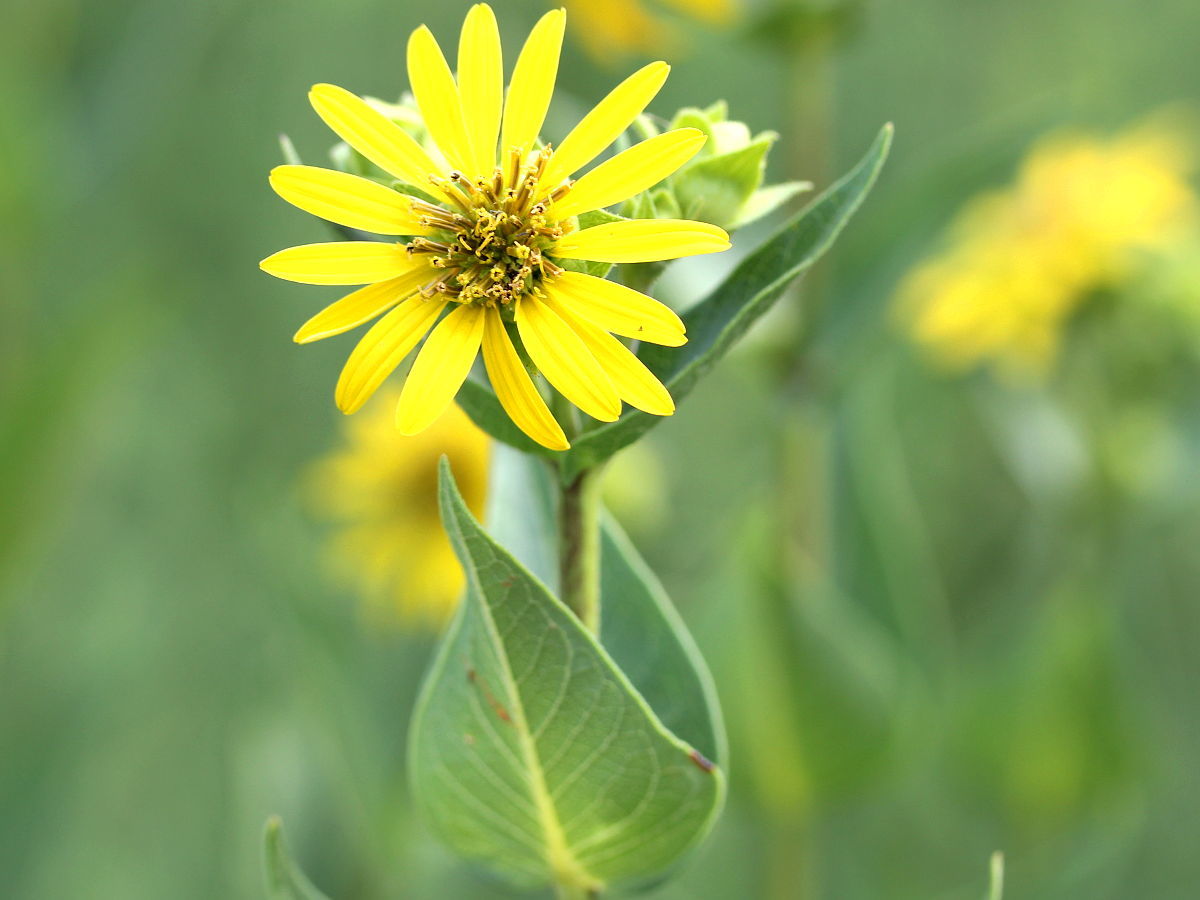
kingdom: Plantae
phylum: Tracheophyta
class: Magnoliopsida
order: Asterales
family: Asteraceae
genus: Silphium
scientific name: Silphium integrifolium
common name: Whole-leaf rosinweed
